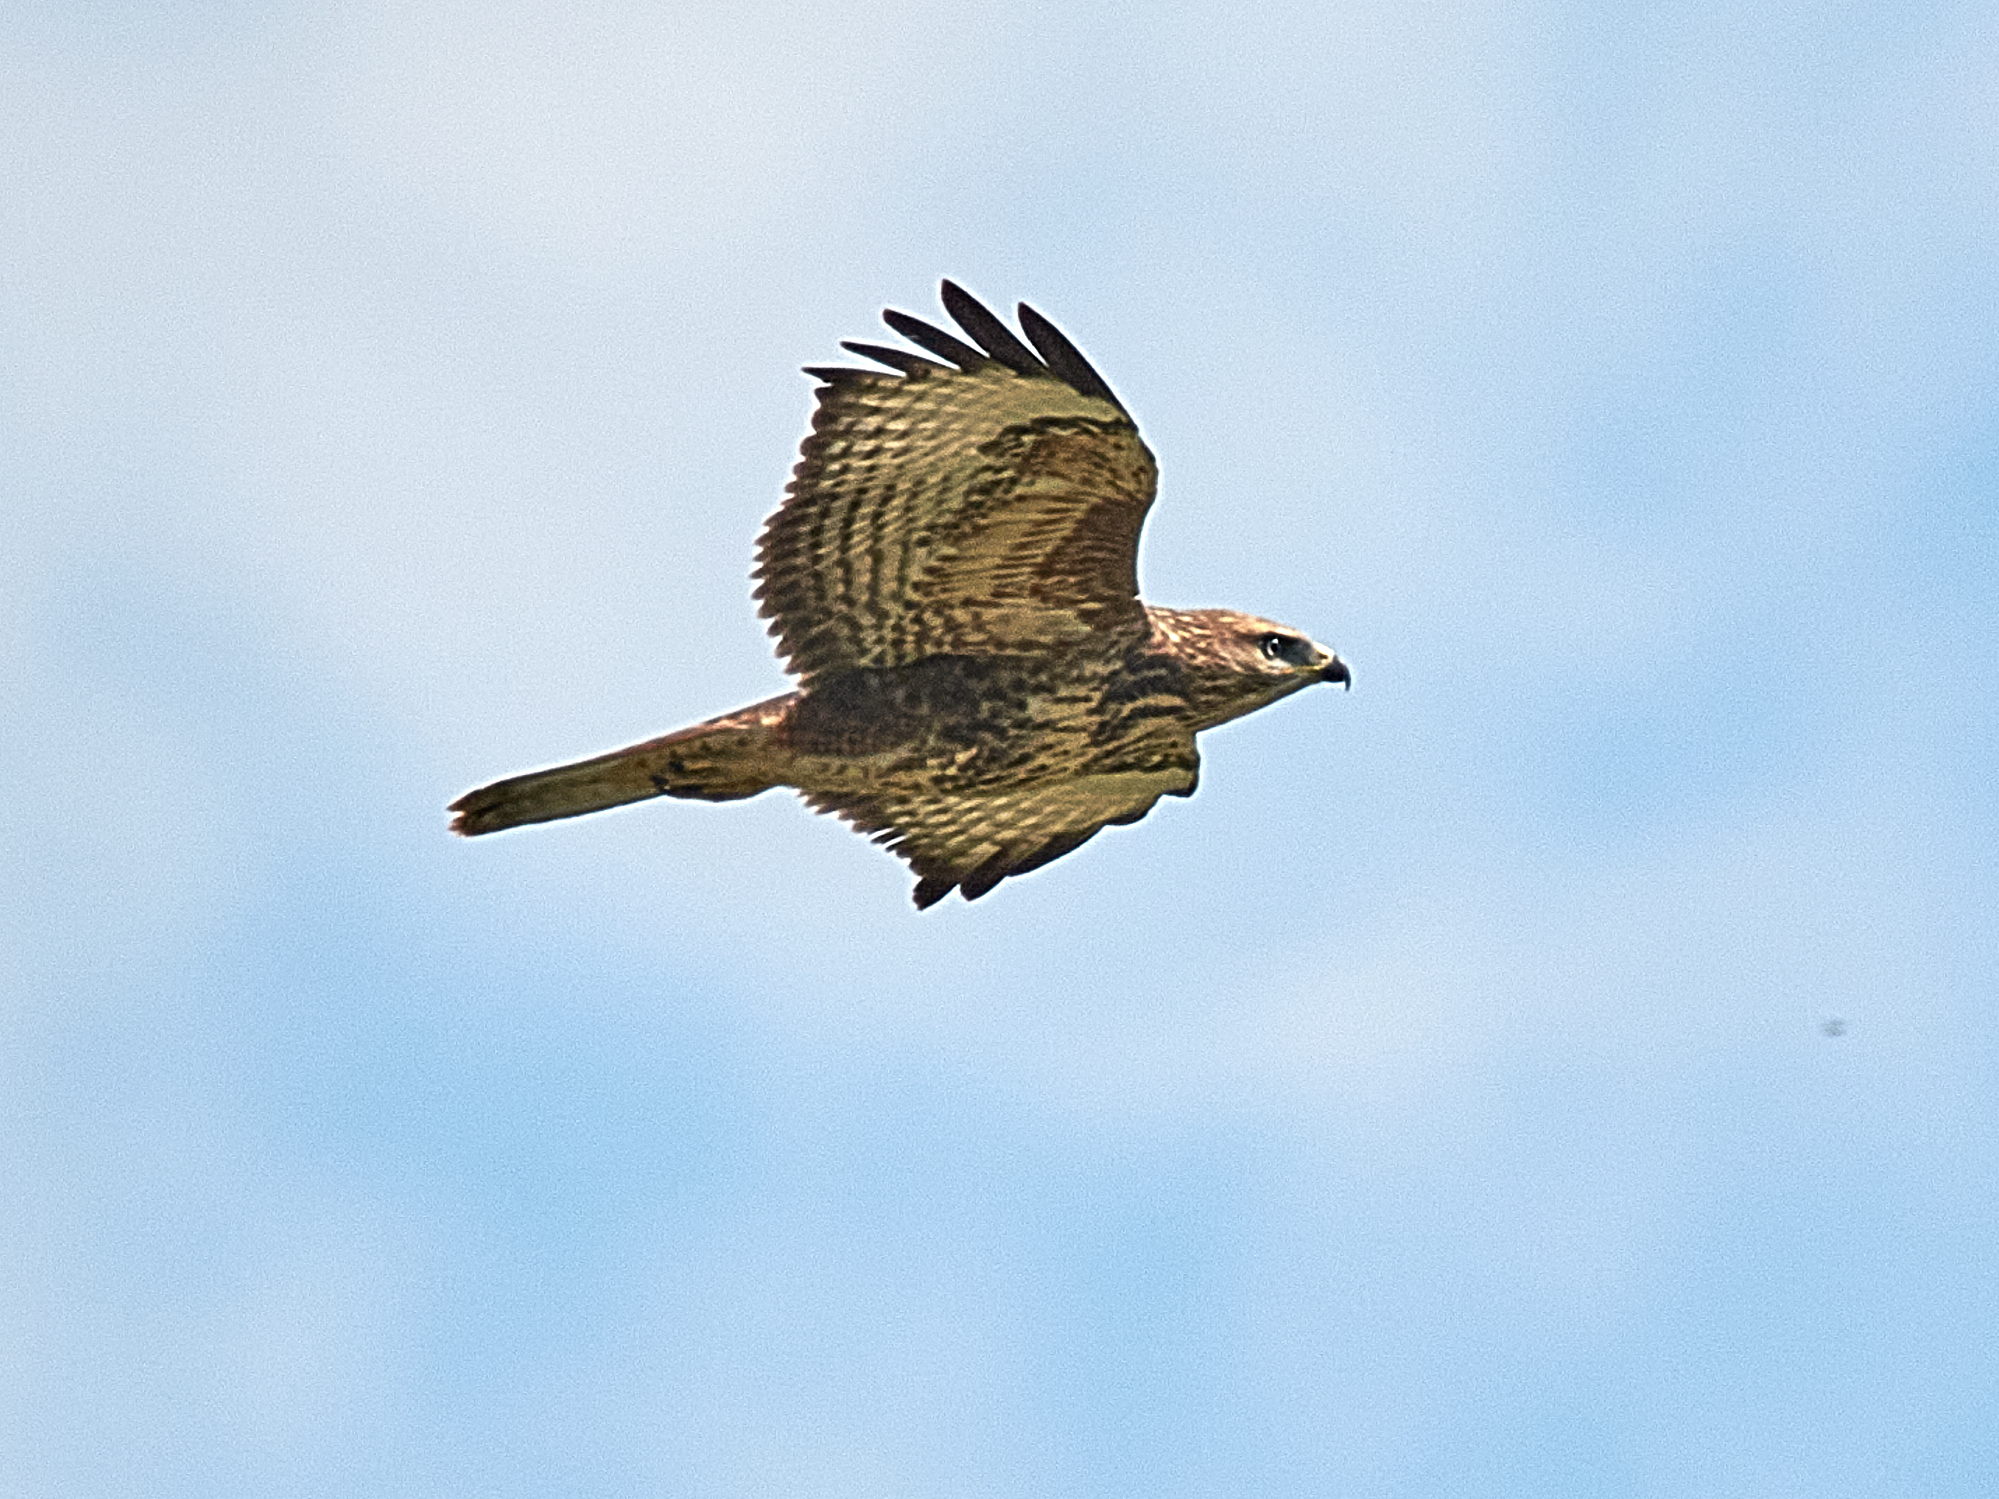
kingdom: Animalia
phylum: Chordata
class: Aves
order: Accipitriformes
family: Accipitridae
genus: Buteo
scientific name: Buteo buteo
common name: Common buzzard
